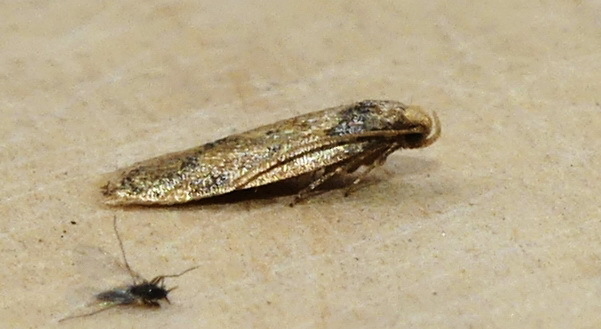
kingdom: Animalia
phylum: Arthropoda
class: Insecta
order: Lepidoptera
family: Autostichidae
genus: Gerdana
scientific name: Gerdana caritella
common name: Gerdana moth
